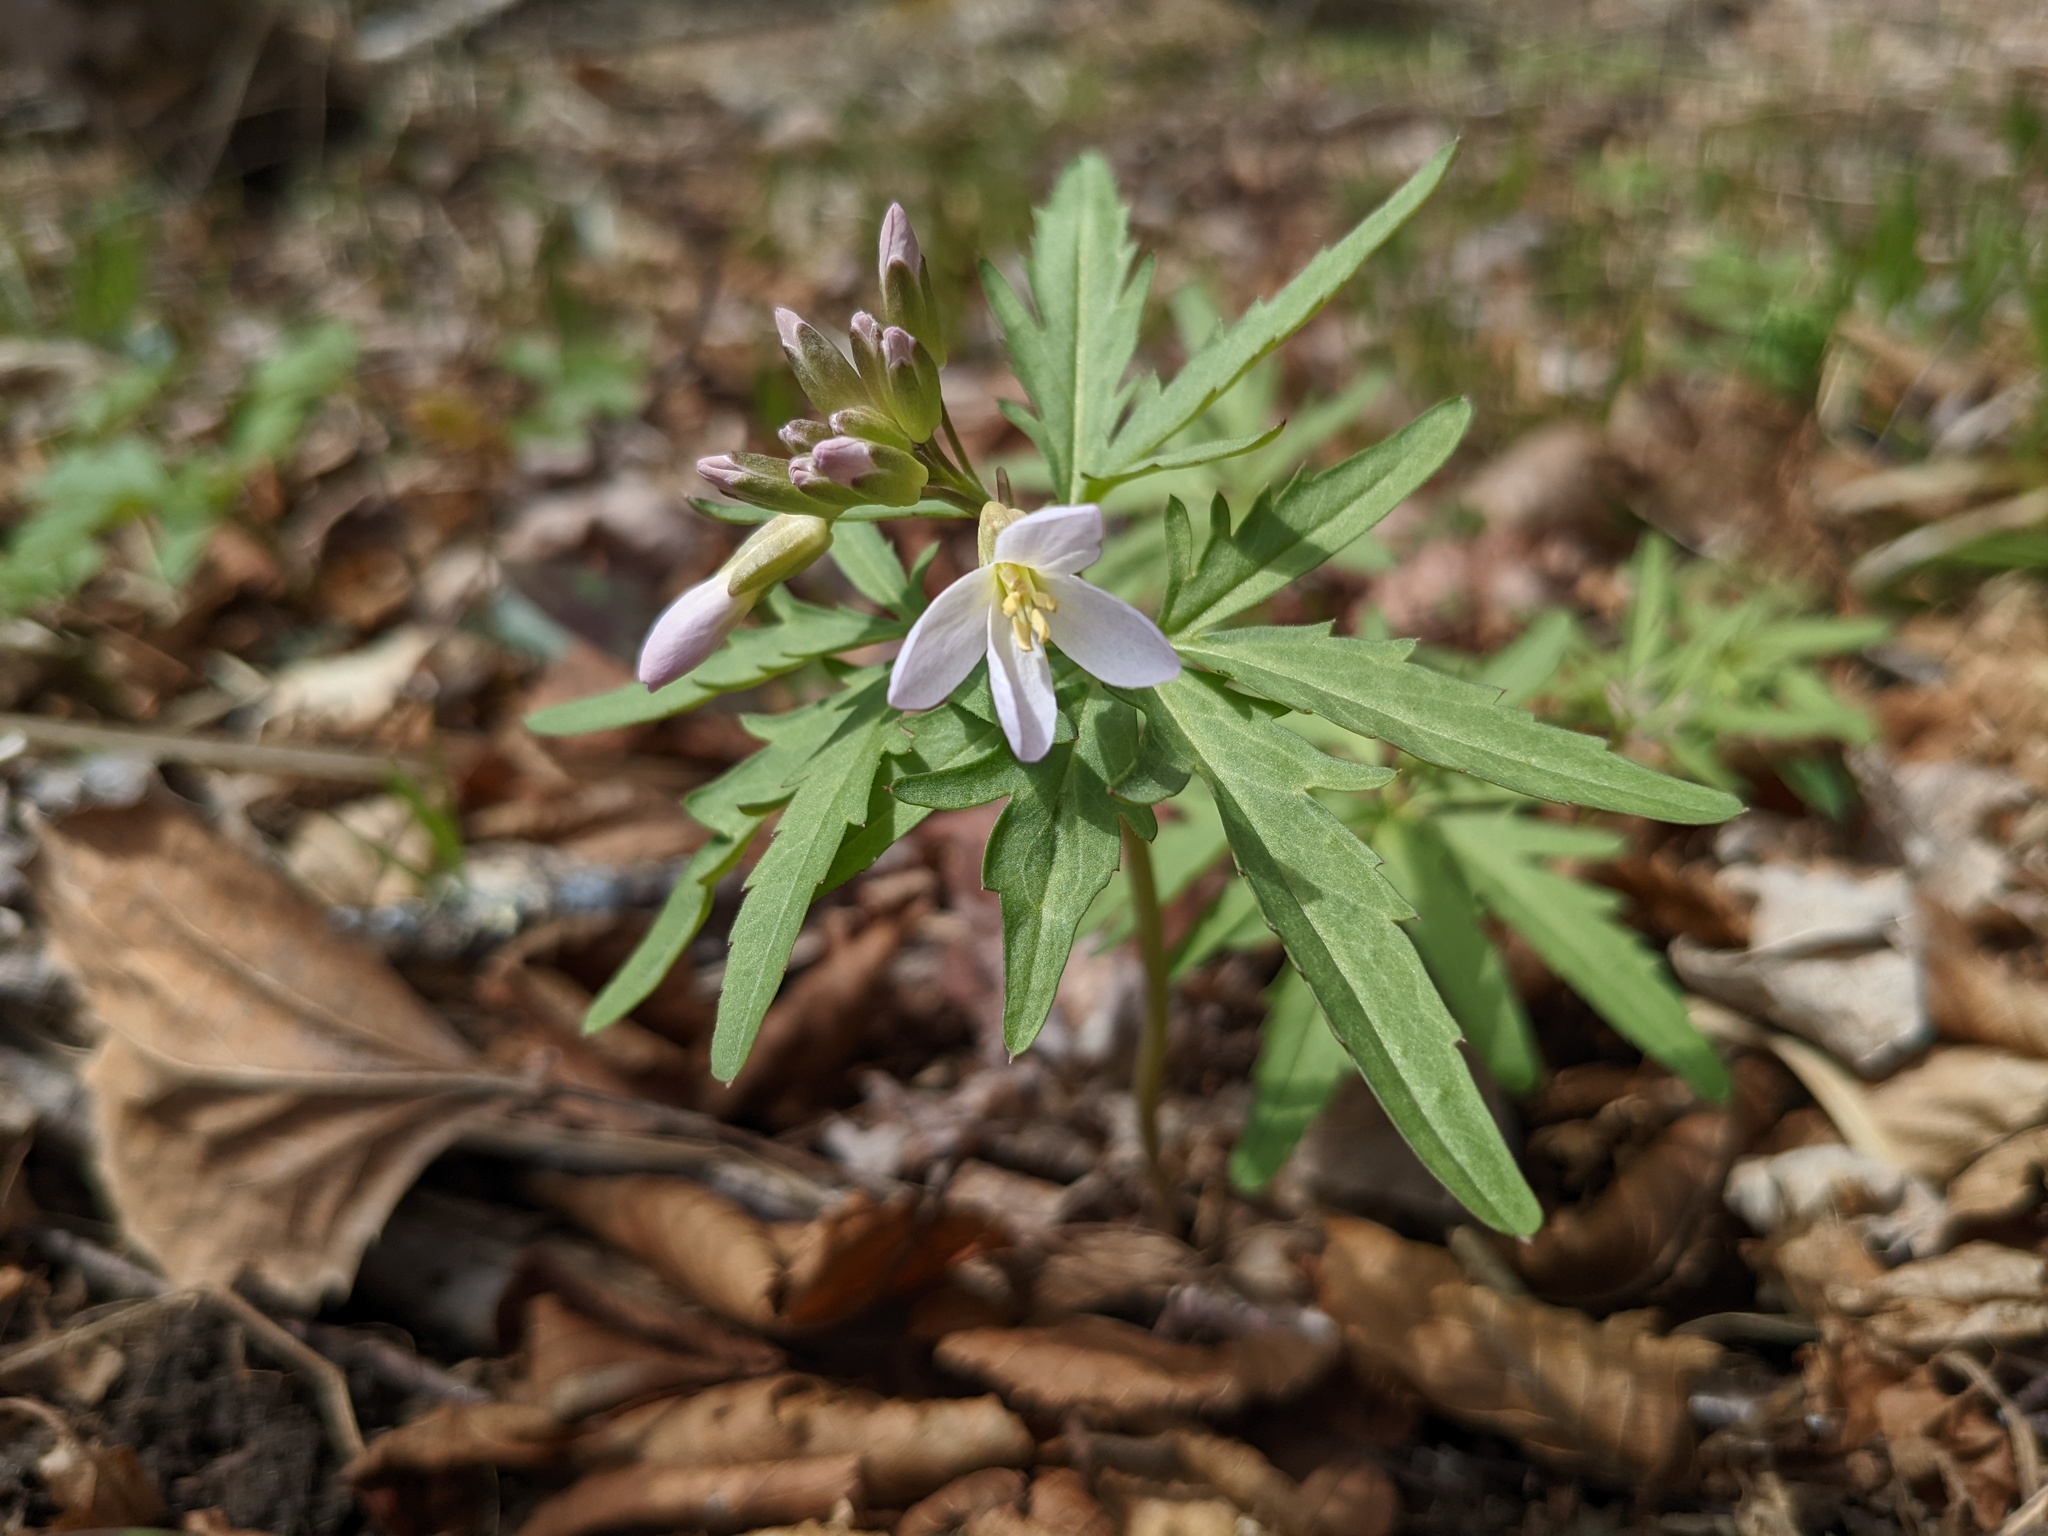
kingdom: Plantae
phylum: Tracheophyta
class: Magnoliopsida
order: Brassicales
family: Brassicaceae
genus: Cardamine
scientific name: Cardamine concatenata
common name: Cut-leaf toothcup
